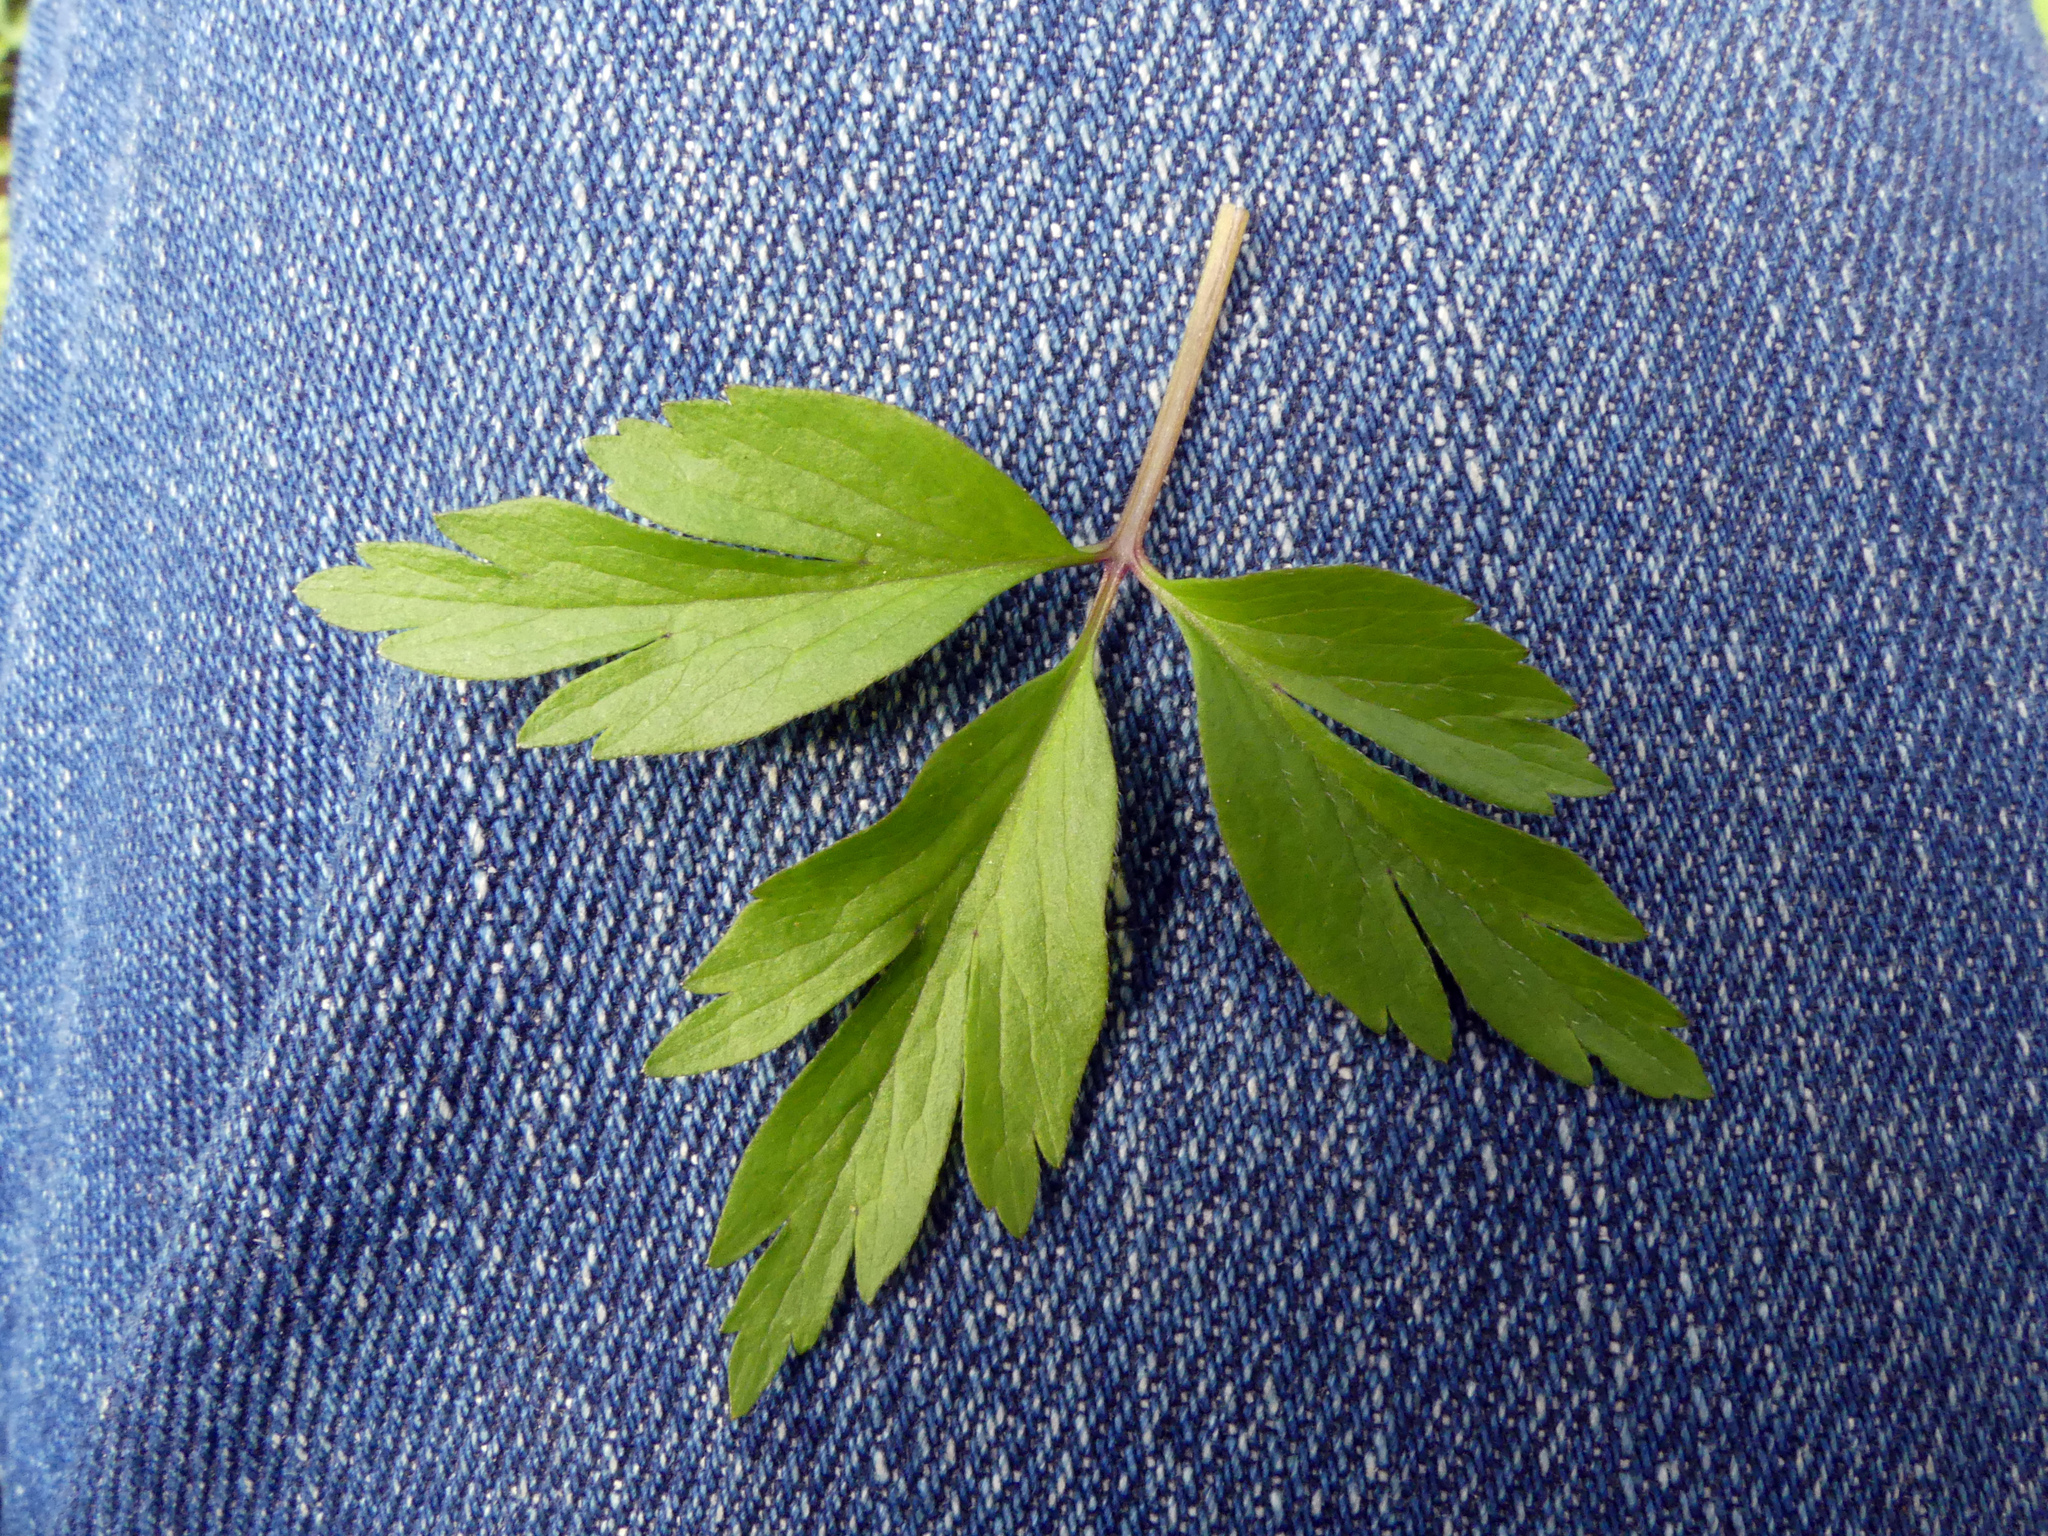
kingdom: Plantae
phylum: Tracheophyta
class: Magnoliopsida
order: Ranunculales
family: Ranunculaceae
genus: Anemone
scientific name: Anemone nemorosa
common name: Wood anemone
